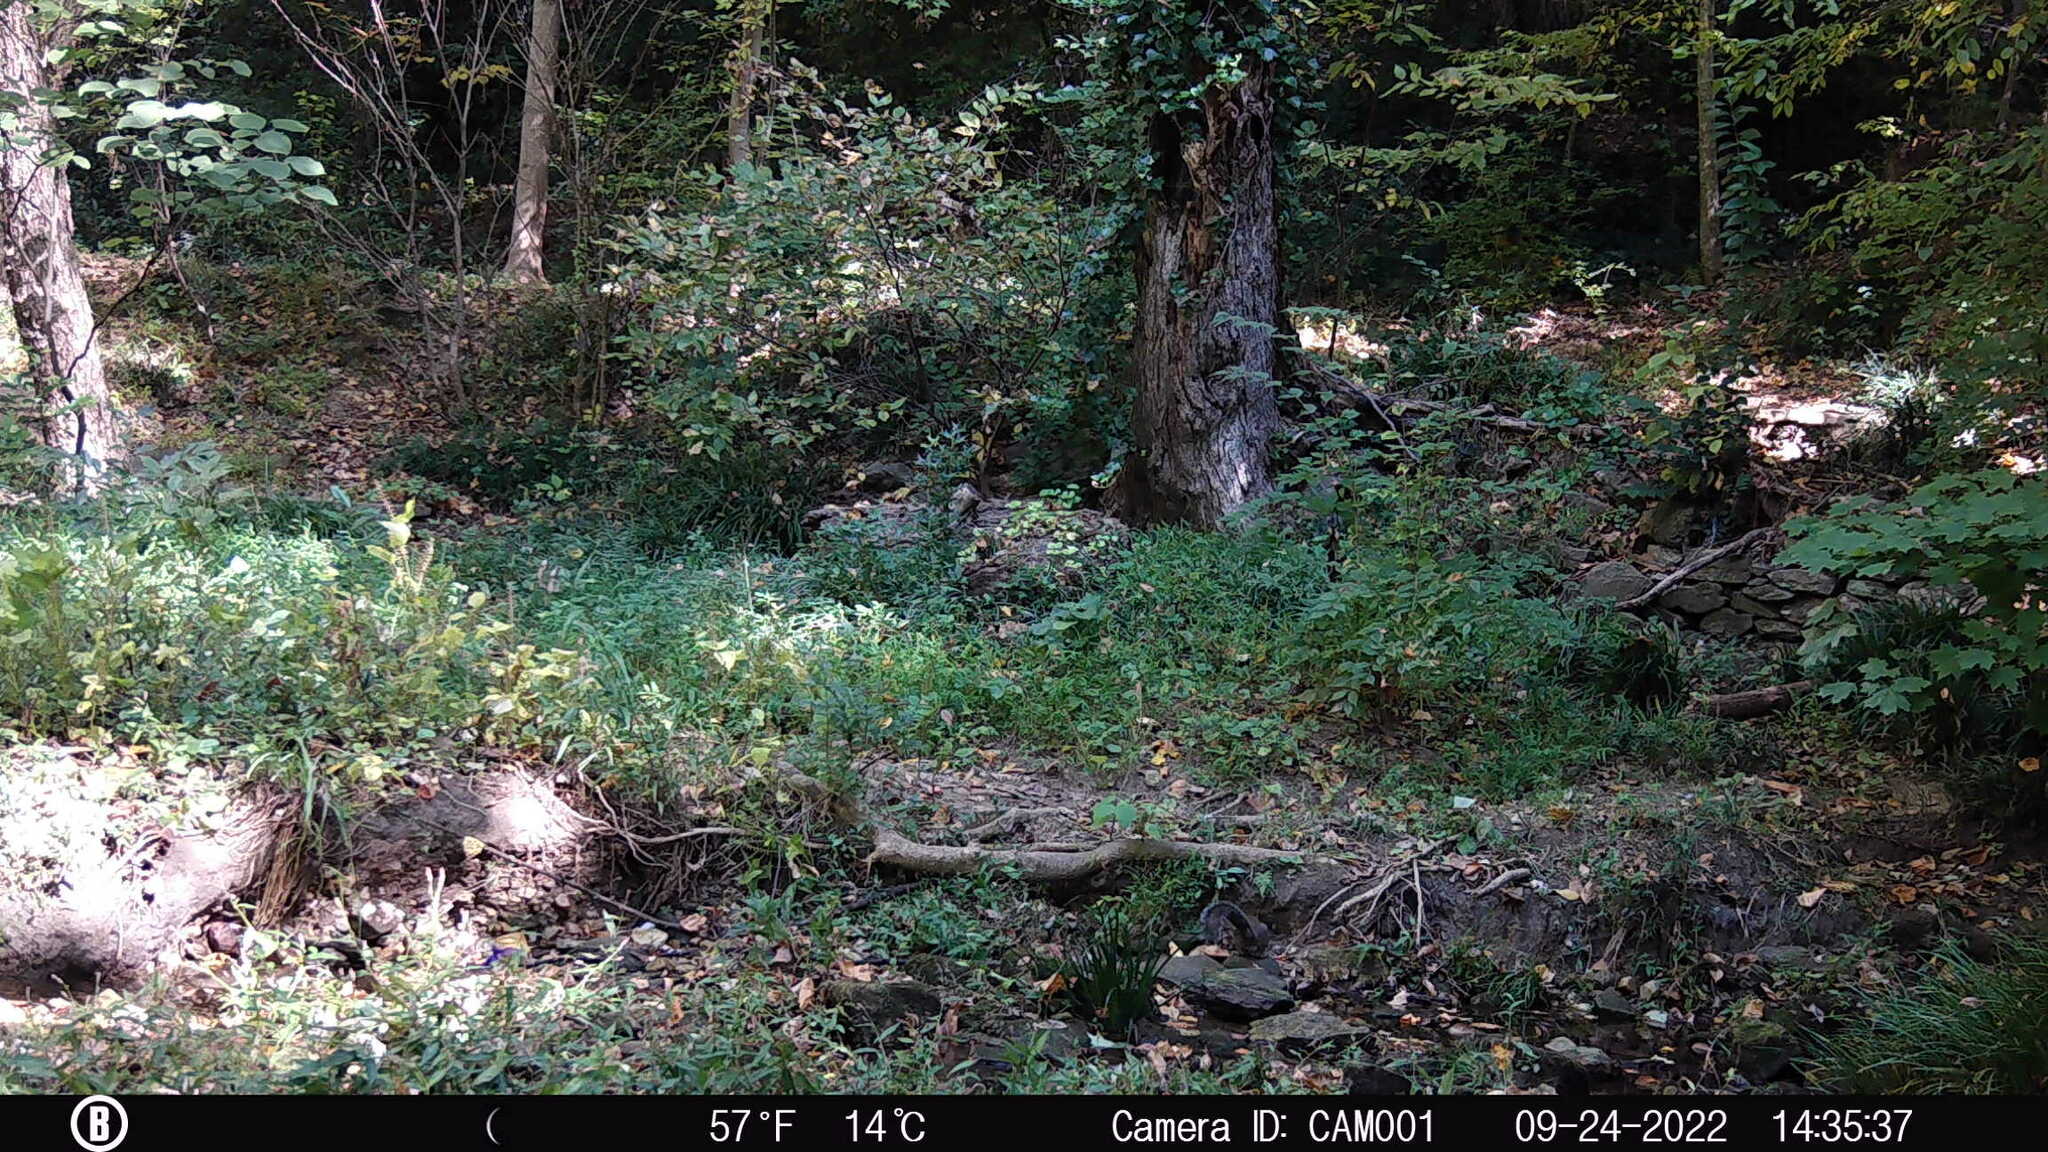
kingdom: Animalia
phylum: Chordata
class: Mammalia
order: Rodentia
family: Sciuridae
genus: Sciurus
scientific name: Sciurus carolinensis
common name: Eastern gray squirrel
